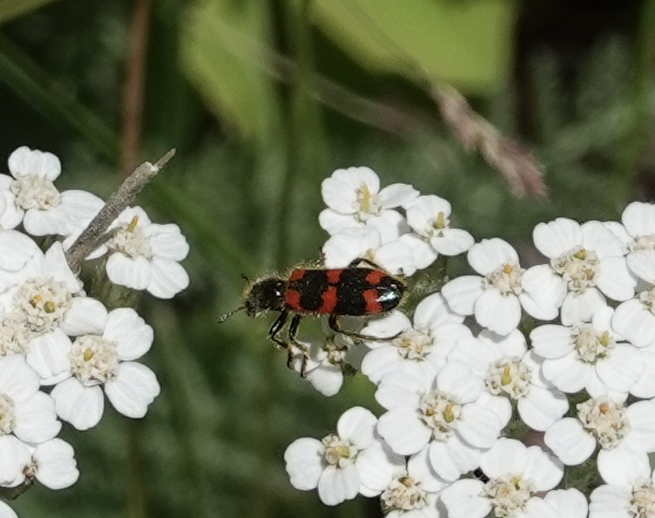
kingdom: Animalia
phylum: Arthropoda
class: Insecta
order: Coleoptera
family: Cleridae
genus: Trichodes
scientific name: Trichodes nutalli
